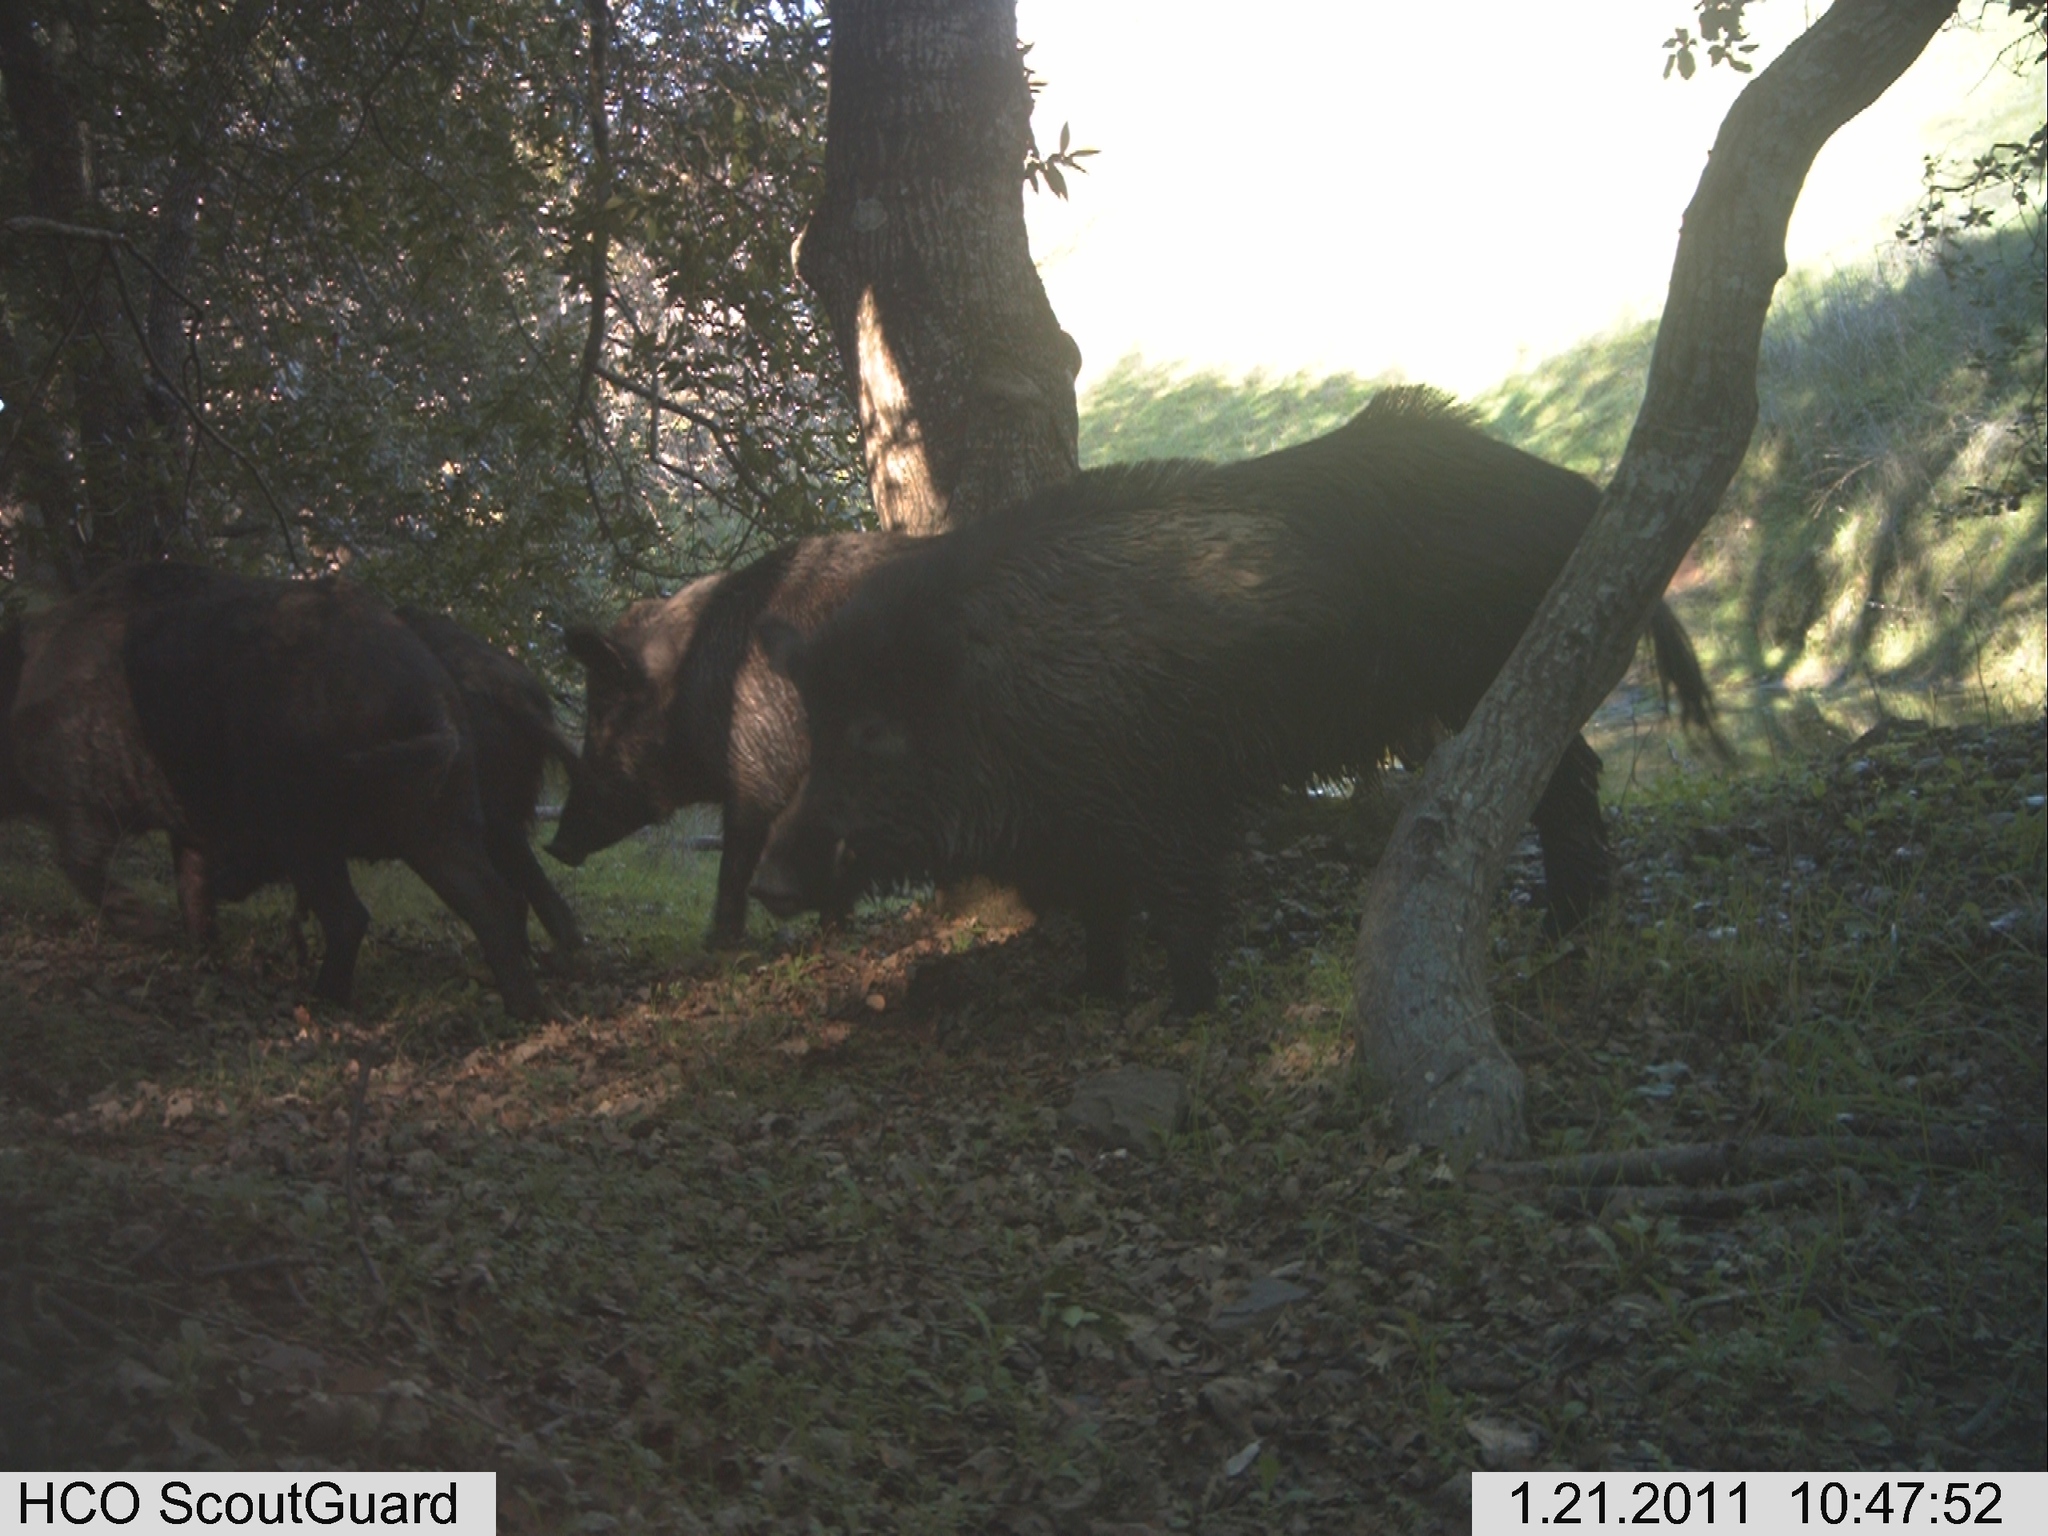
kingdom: Animalia
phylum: Chordata
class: Mammalia
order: Artiodactyla
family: Suidae
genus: Sus
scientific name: Sus scrofa
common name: Wild boar
